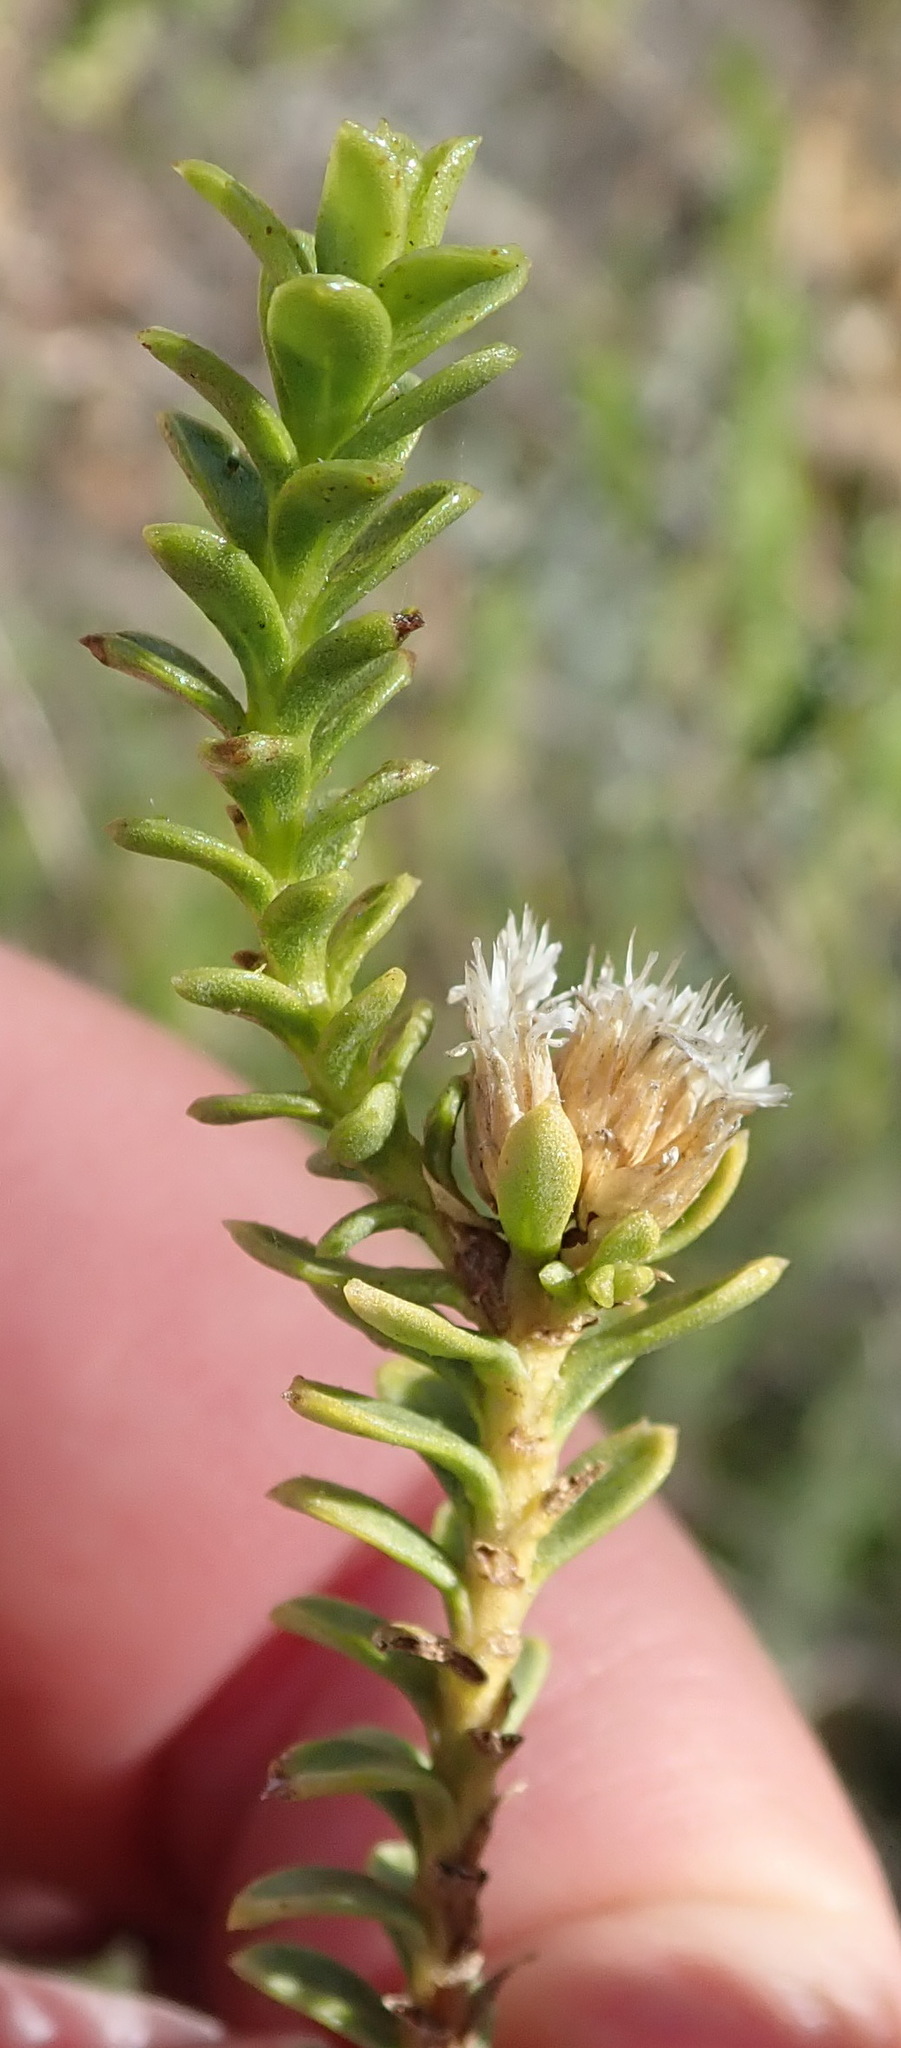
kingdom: Plantae
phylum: Tracheophyta
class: Magnoliopsida
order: Asterales
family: Asteraceae
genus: Oedera
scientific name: Oedera squarrosa
